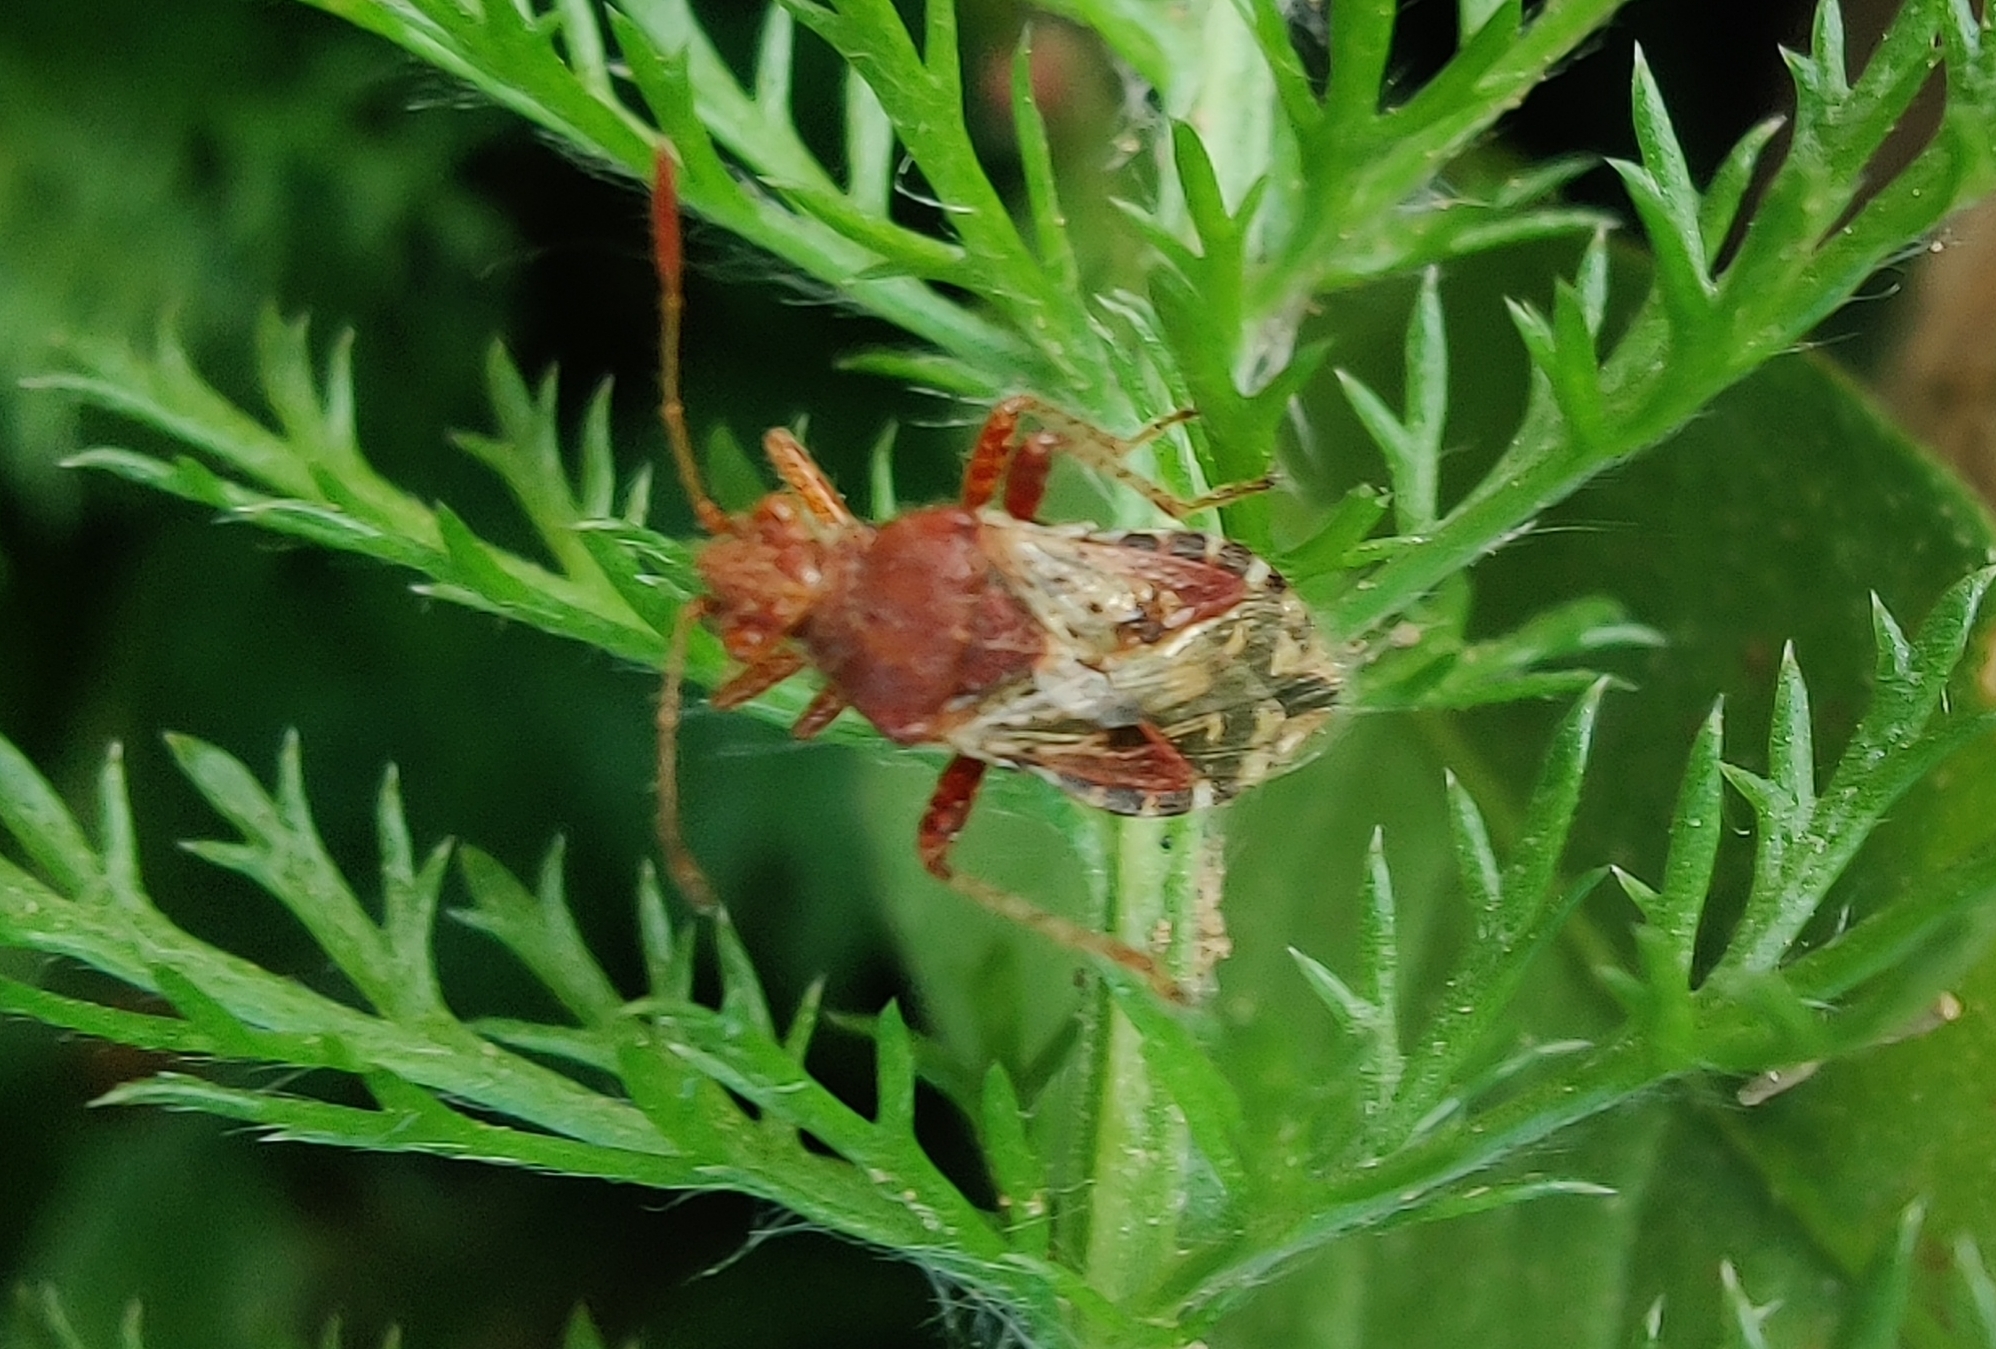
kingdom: Animalia
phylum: Arthropoda
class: Insecta
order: Hemiptera
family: Rhopalidae
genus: Rhopalus
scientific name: Rhopalus subrufus
